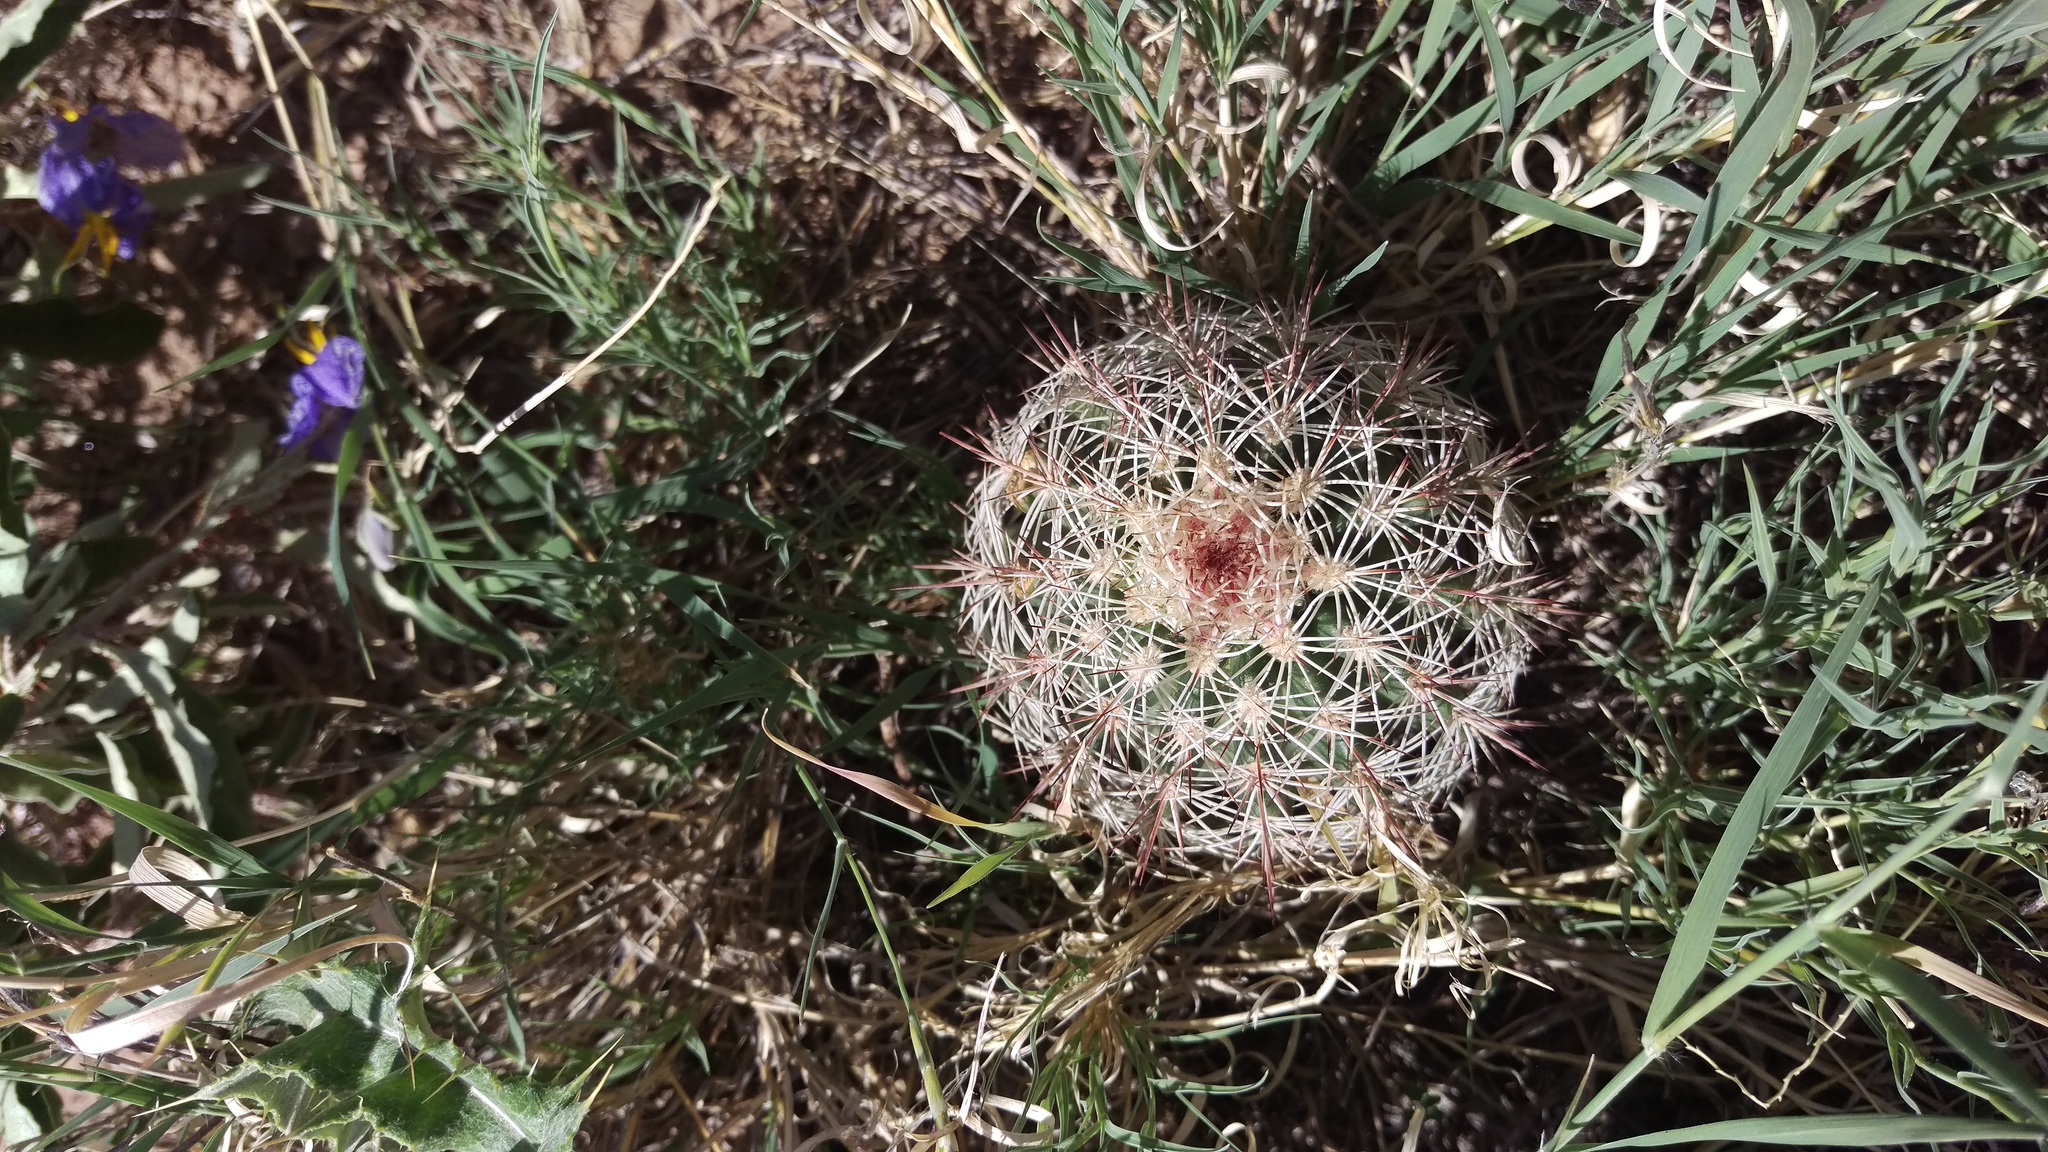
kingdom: Plantae
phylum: Tracheophyta
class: Magnoliopsida
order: Caryophyllales
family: Cactaceae
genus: Echinocereus
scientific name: Echinocereus dasyacanthus
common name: Spiny hedgehog cactus
